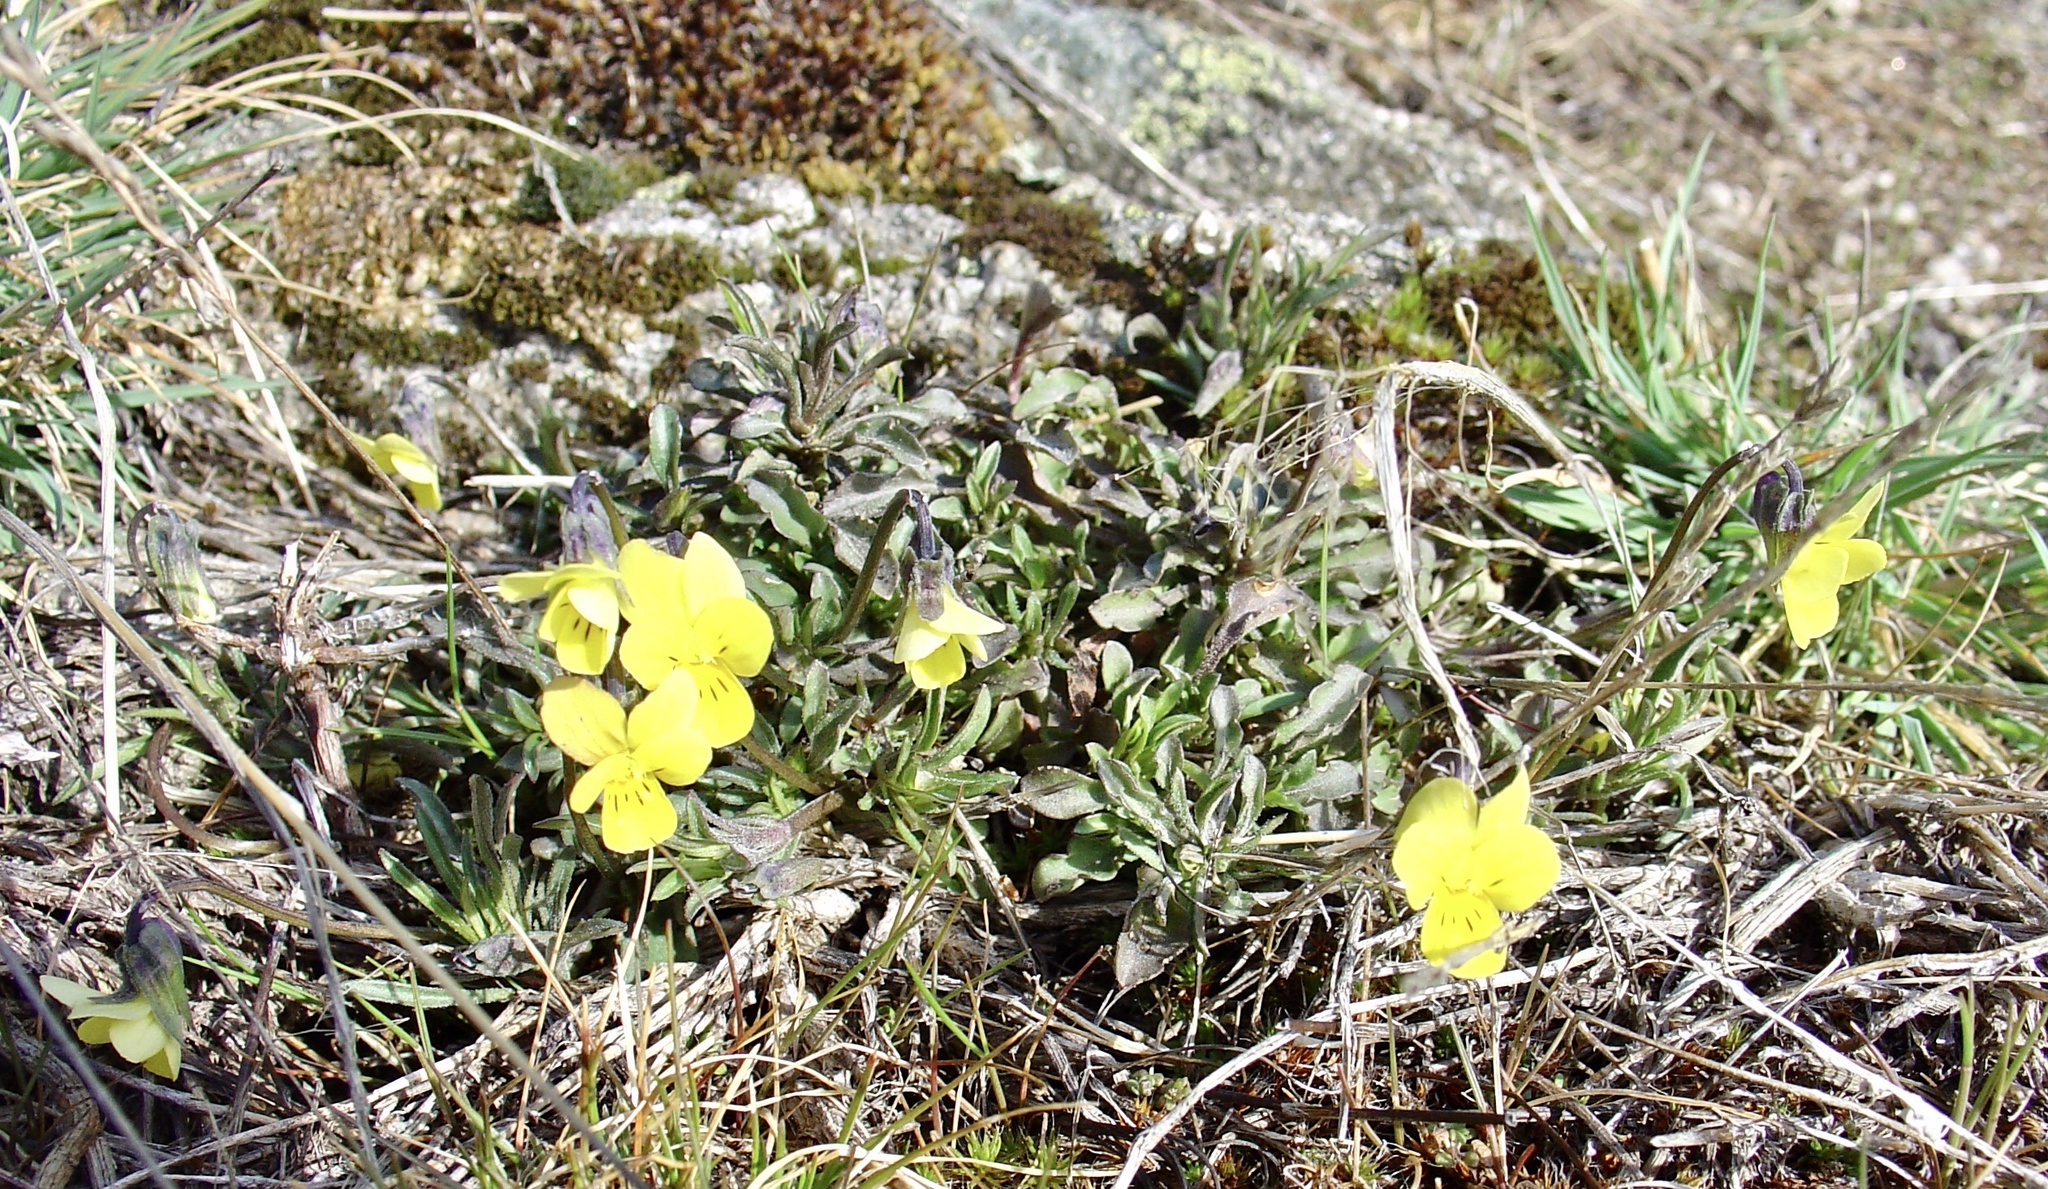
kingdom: Plantae
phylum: Tracheophyta
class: Magnoliopsida
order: Malpighiales
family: Violaceae
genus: Viola
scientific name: Viola langeana
